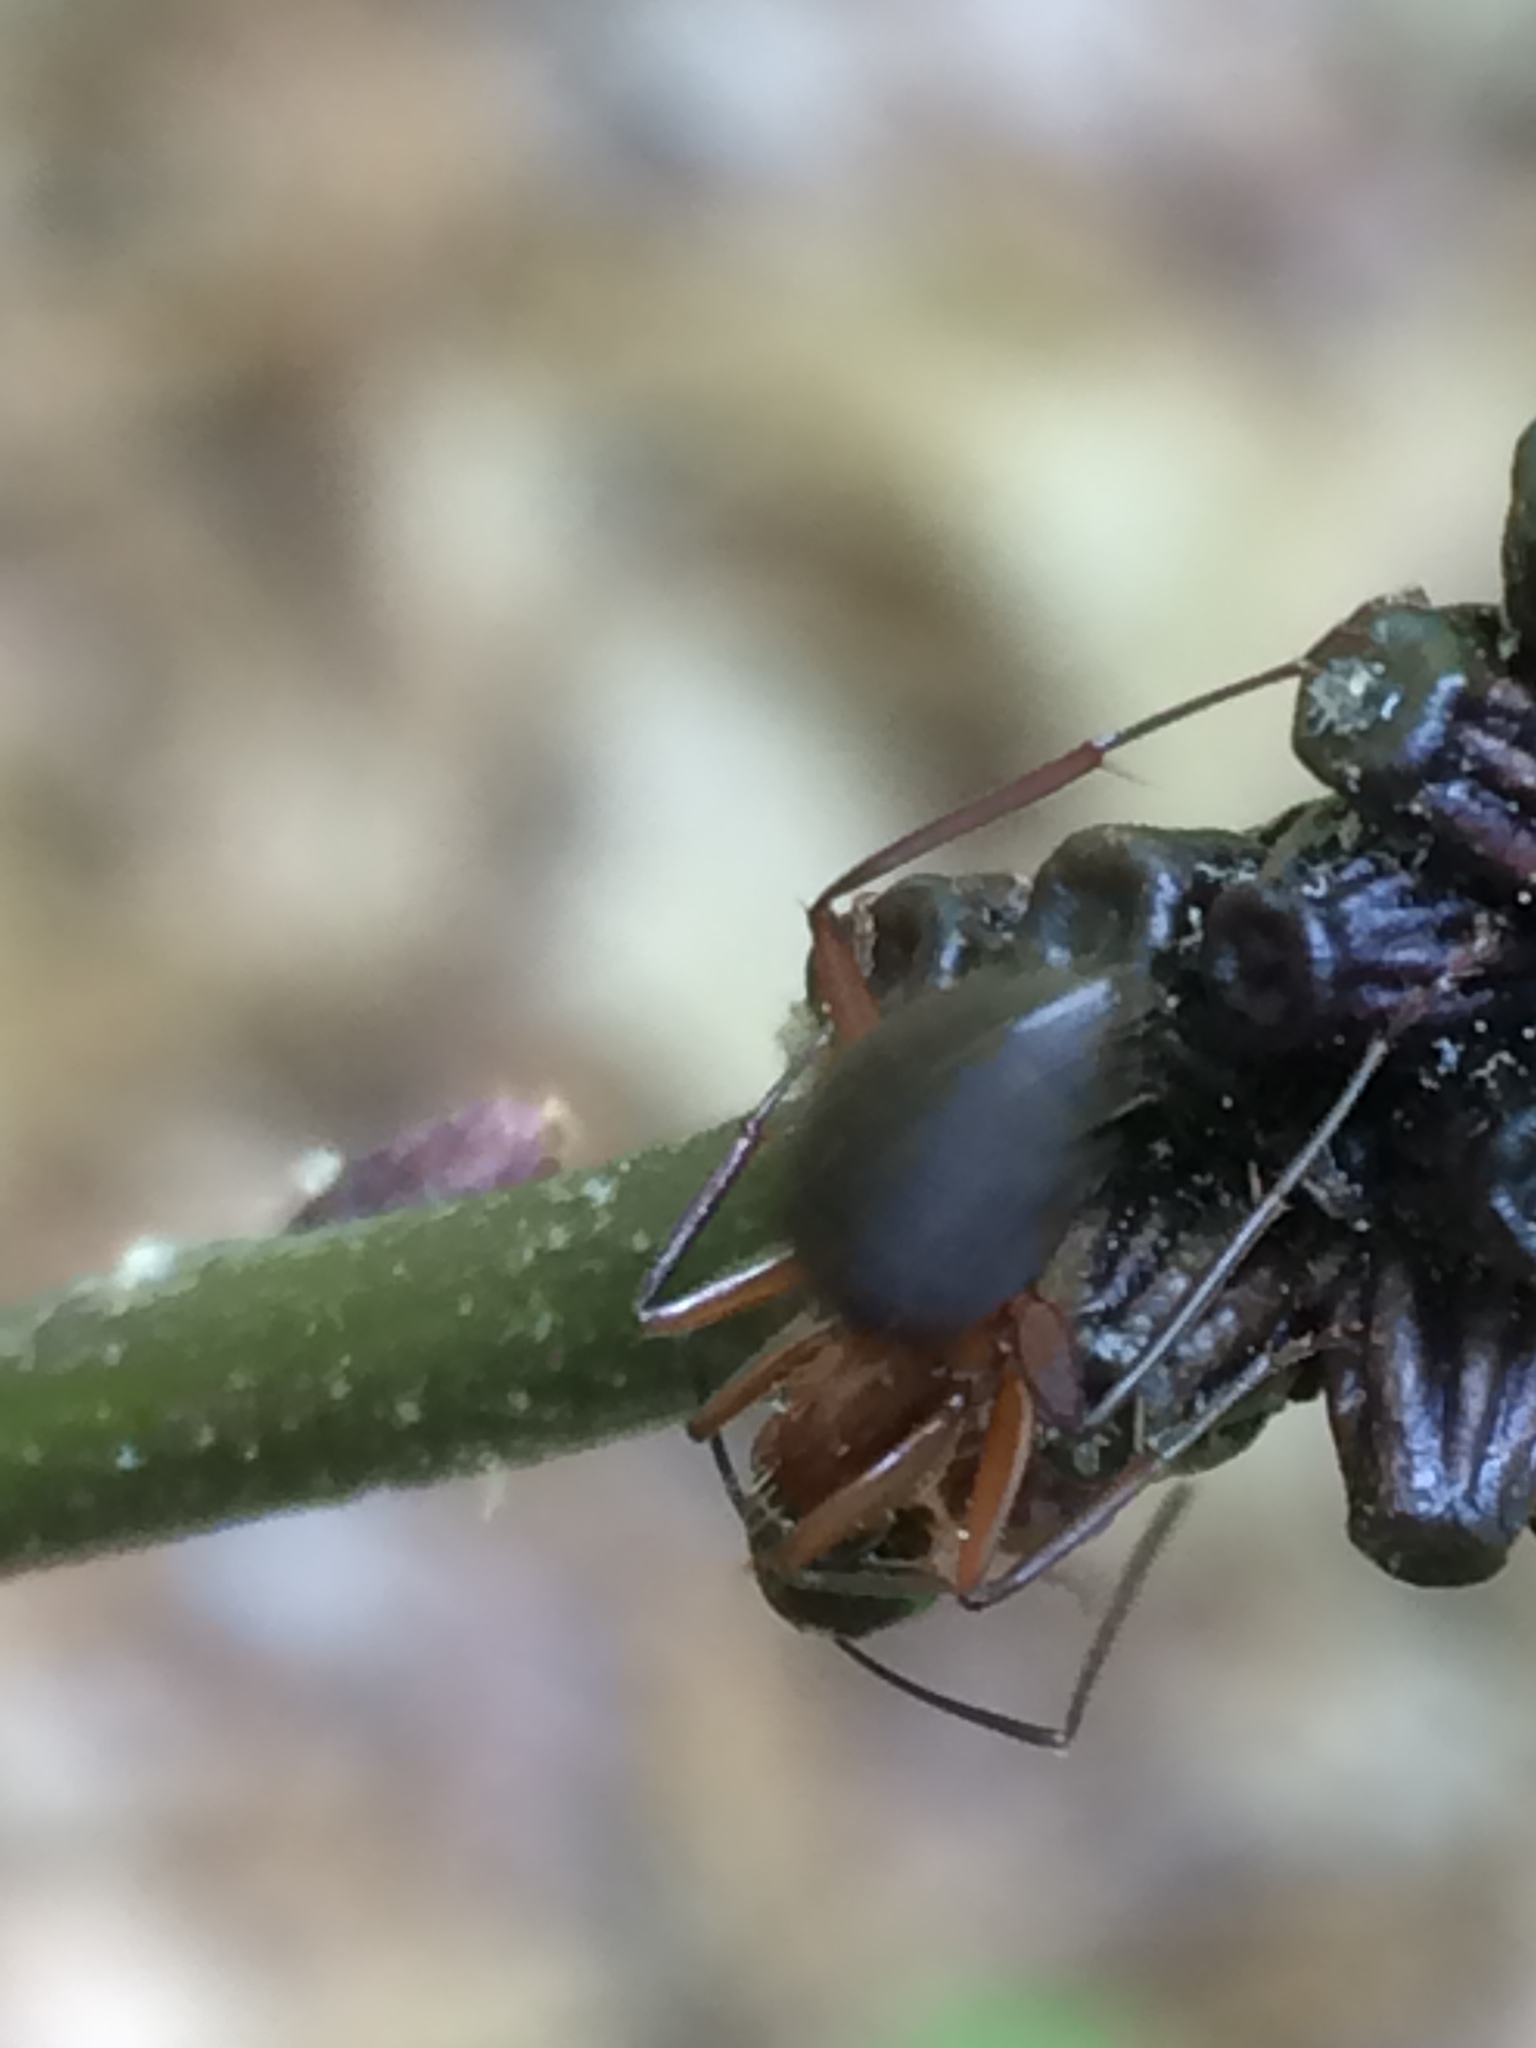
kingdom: Animalia
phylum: Arthropoda
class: Insecta
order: Hymenoptera
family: Formicidae
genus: Camponotus
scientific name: Camponotus chromaiodes
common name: Red carpenter ant
